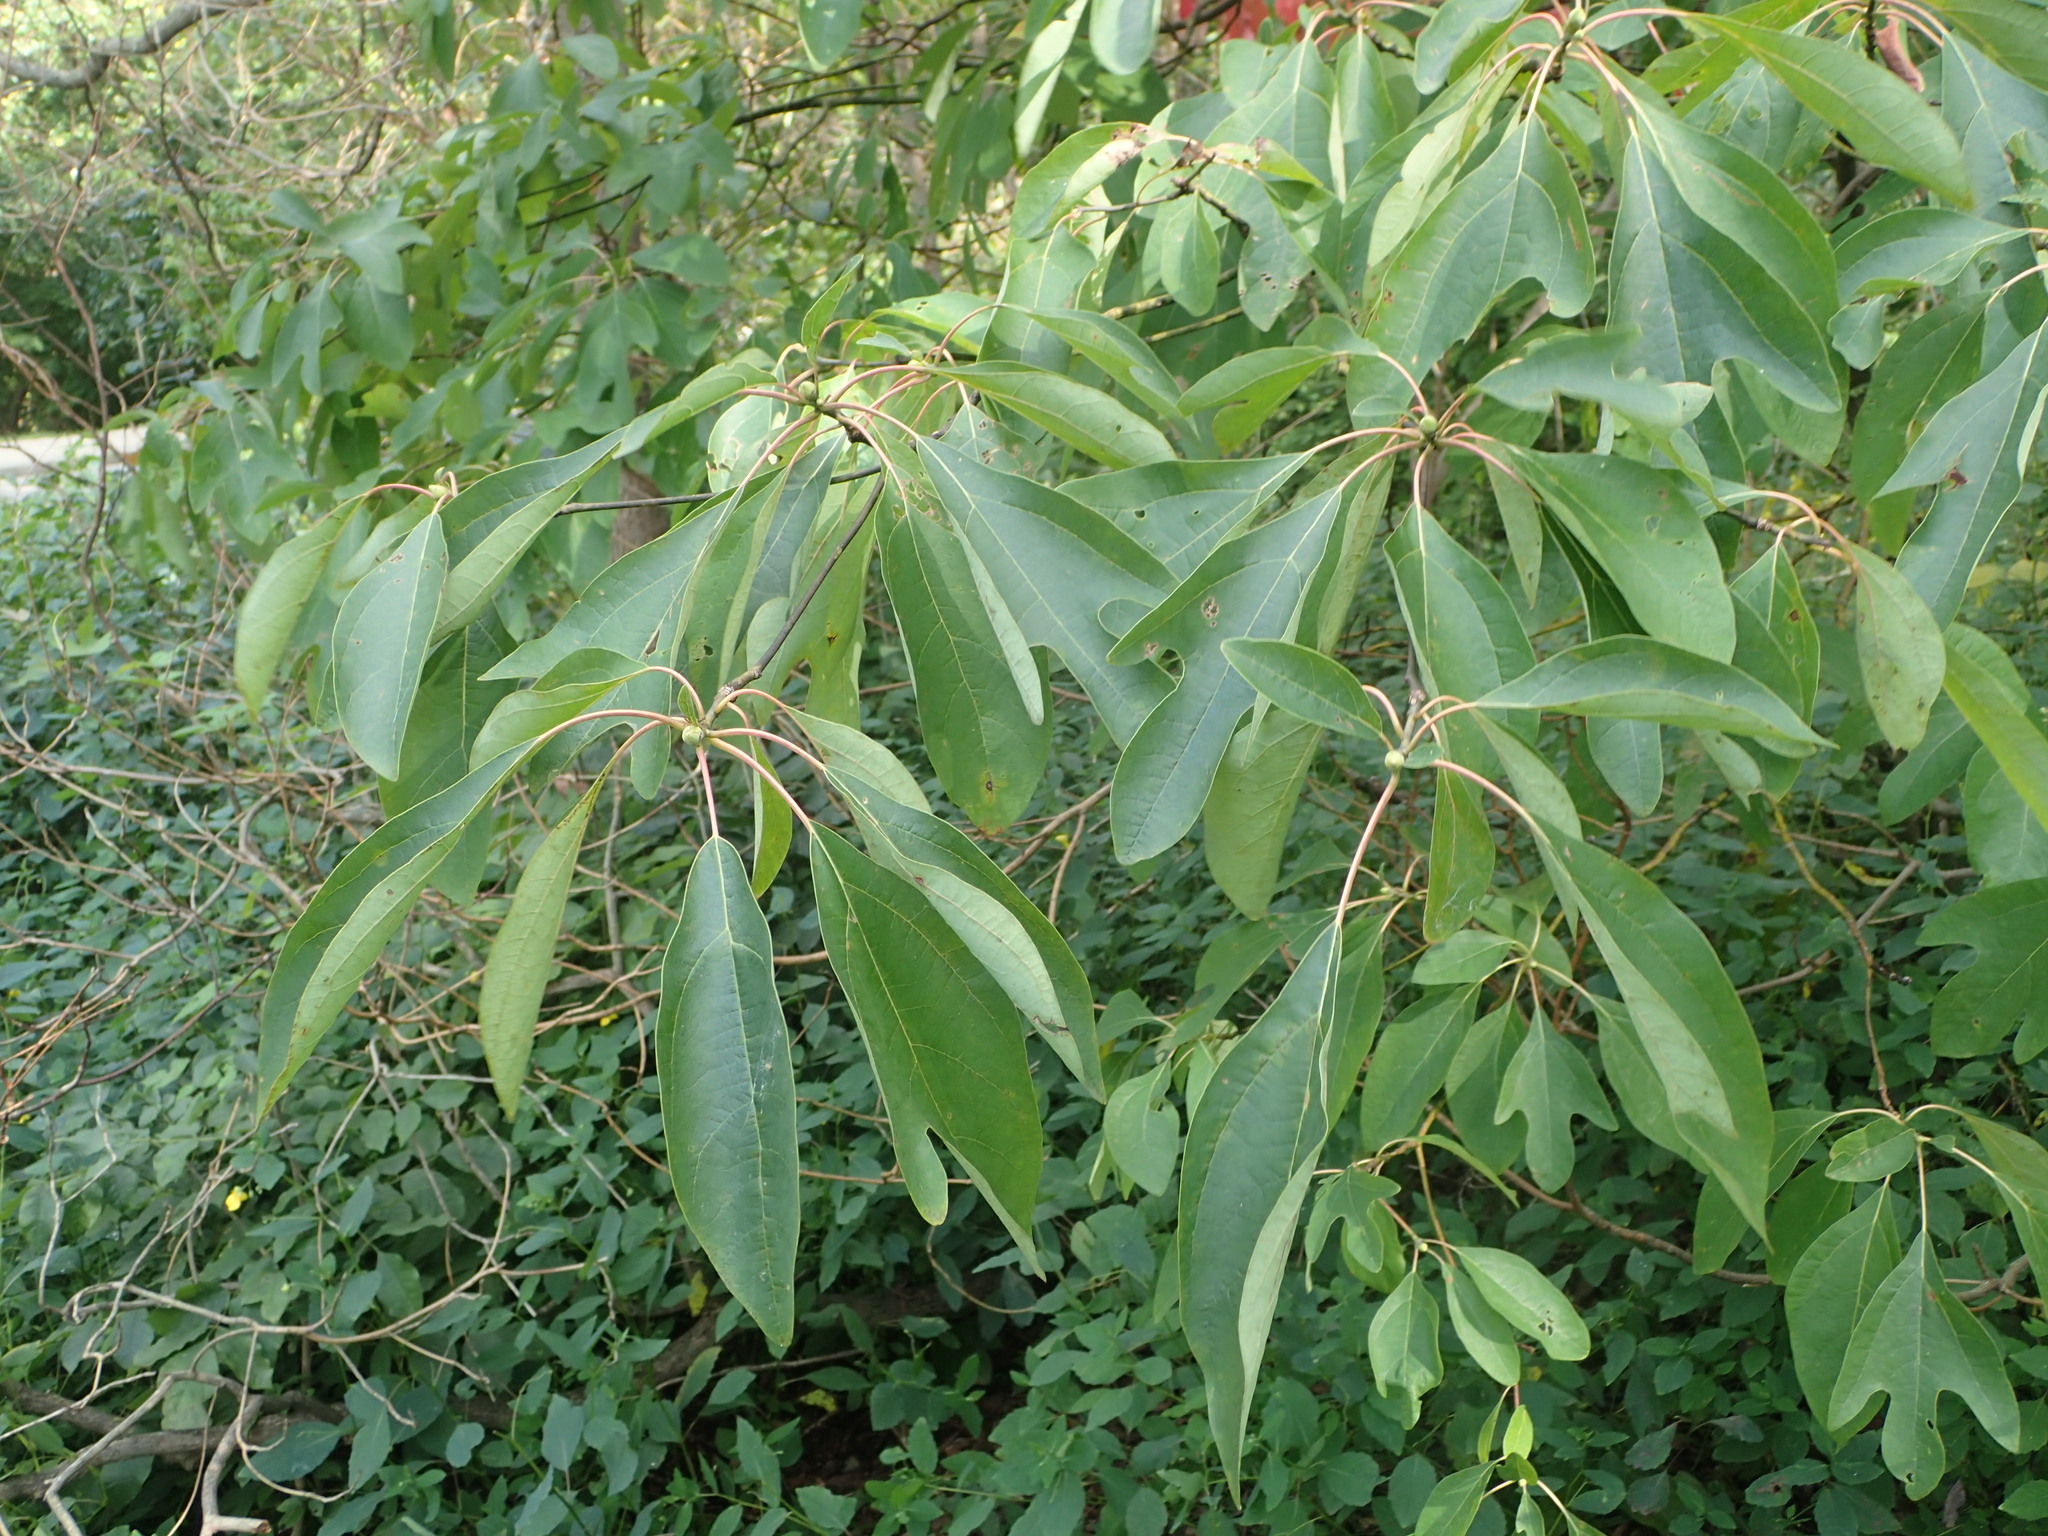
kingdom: Plantae
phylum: Tracheophyta
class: Magnoliopsida
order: Laurales
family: Lauraceae
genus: Sassafras
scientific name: Sassafras albidum
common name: Sassafras
